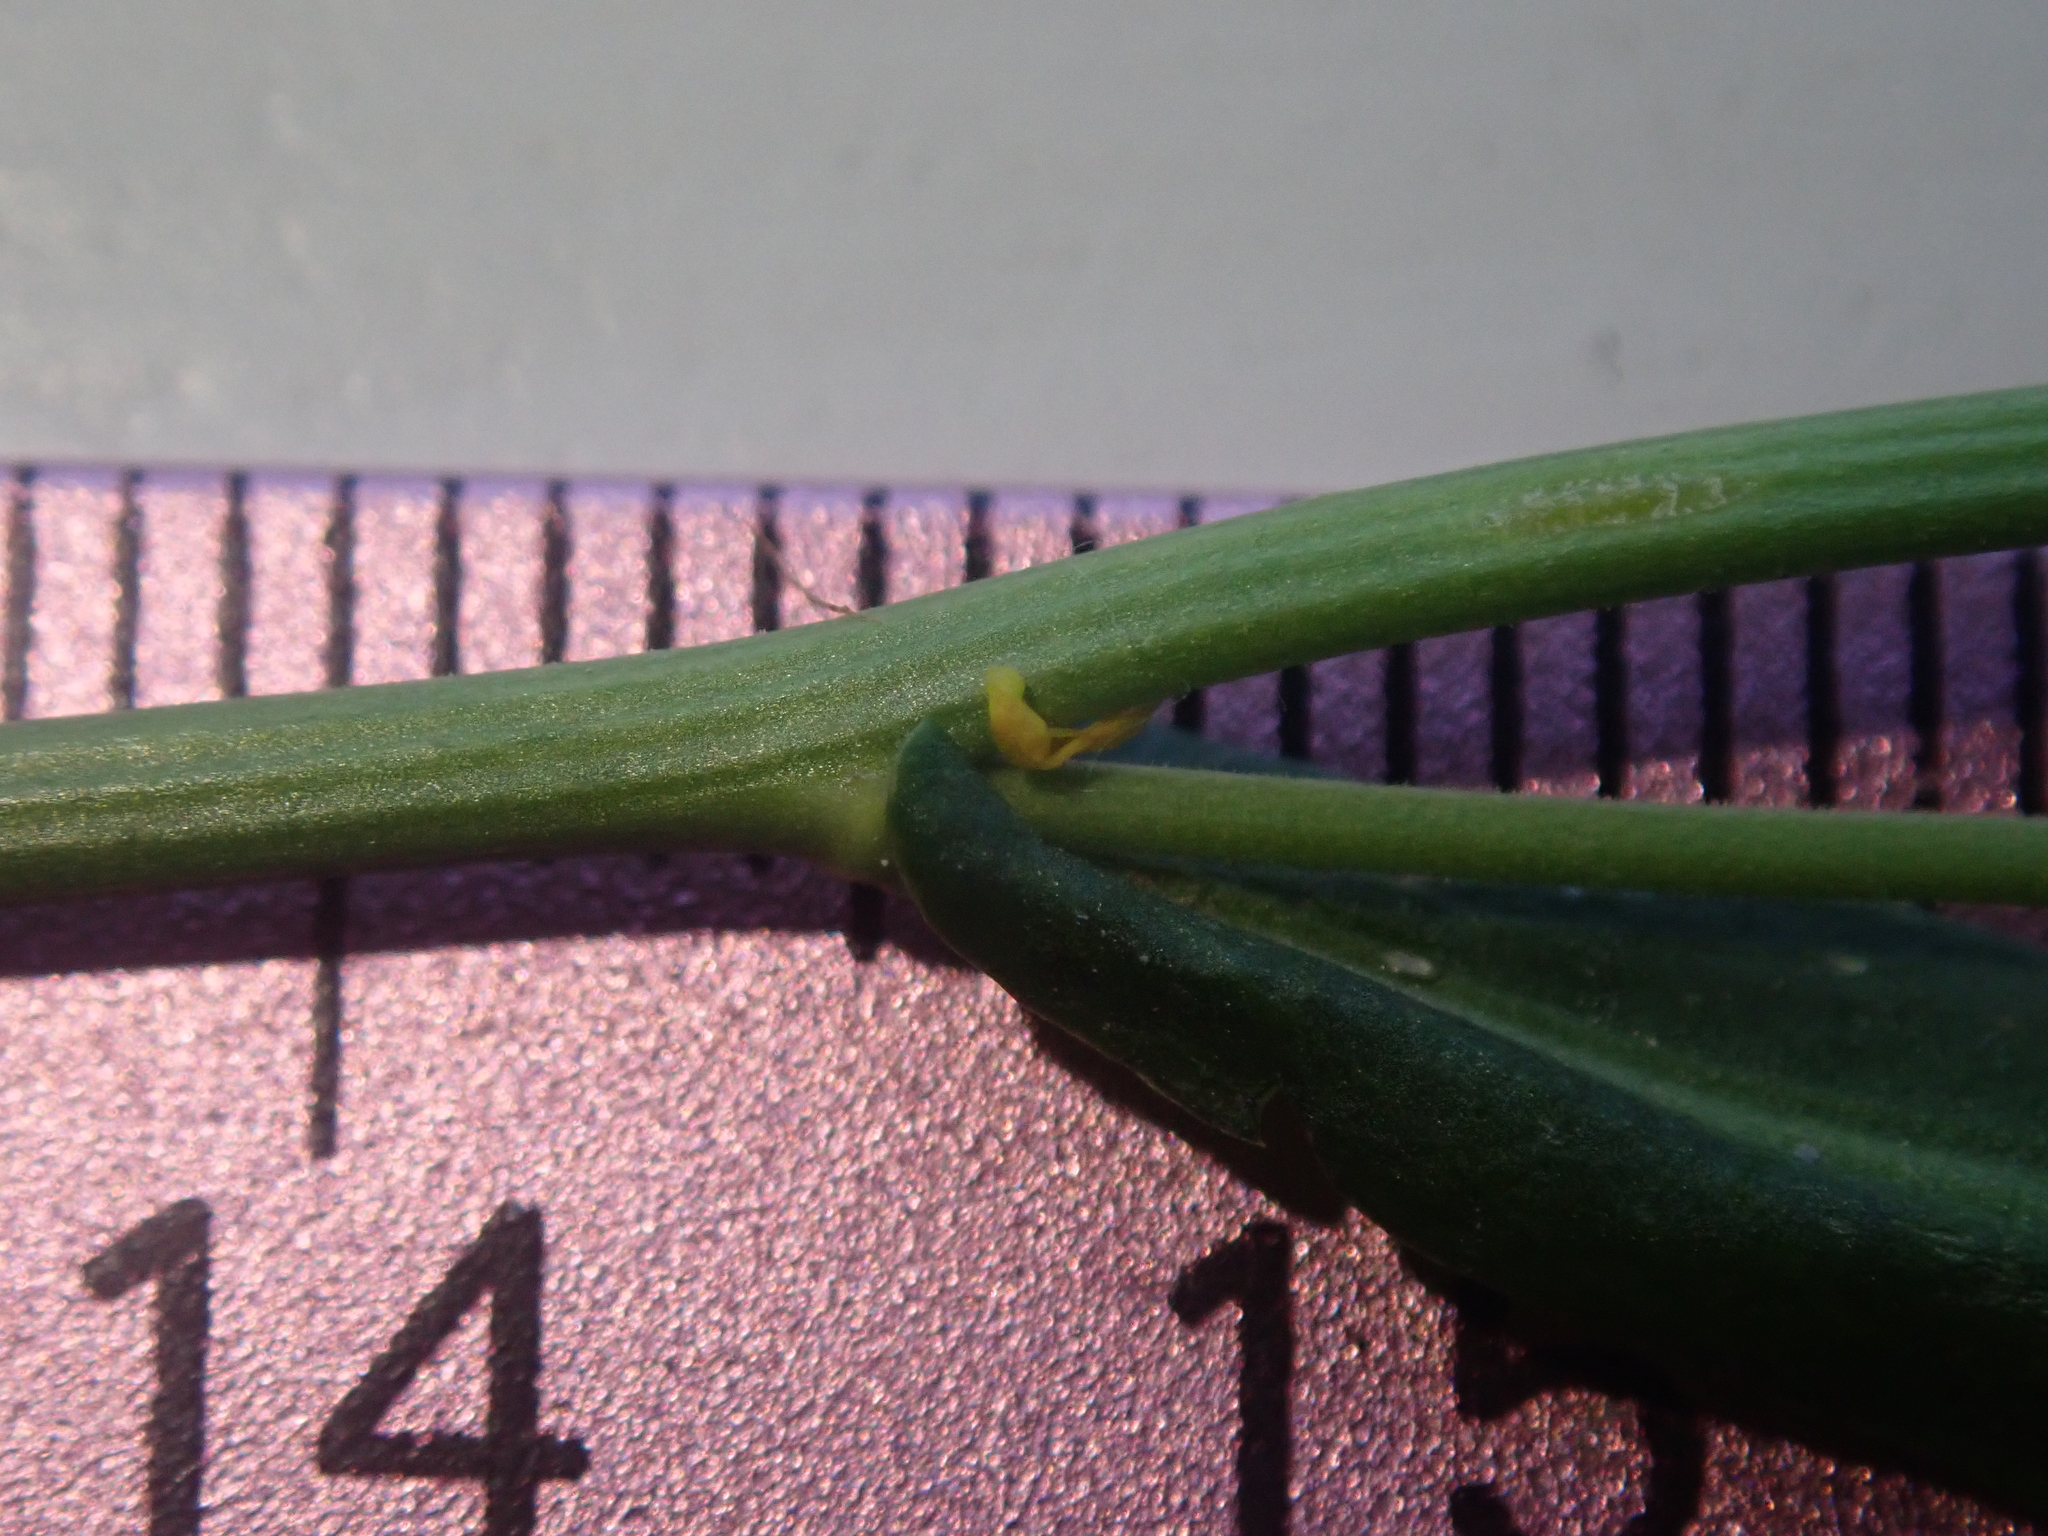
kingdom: Plantae
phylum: Tracheophyta
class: Magnoliopsida
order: Brassicales
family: Brassicaceae
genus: Rorippa
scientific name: Rorippa austriaca
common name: Austrian yellow-cress
